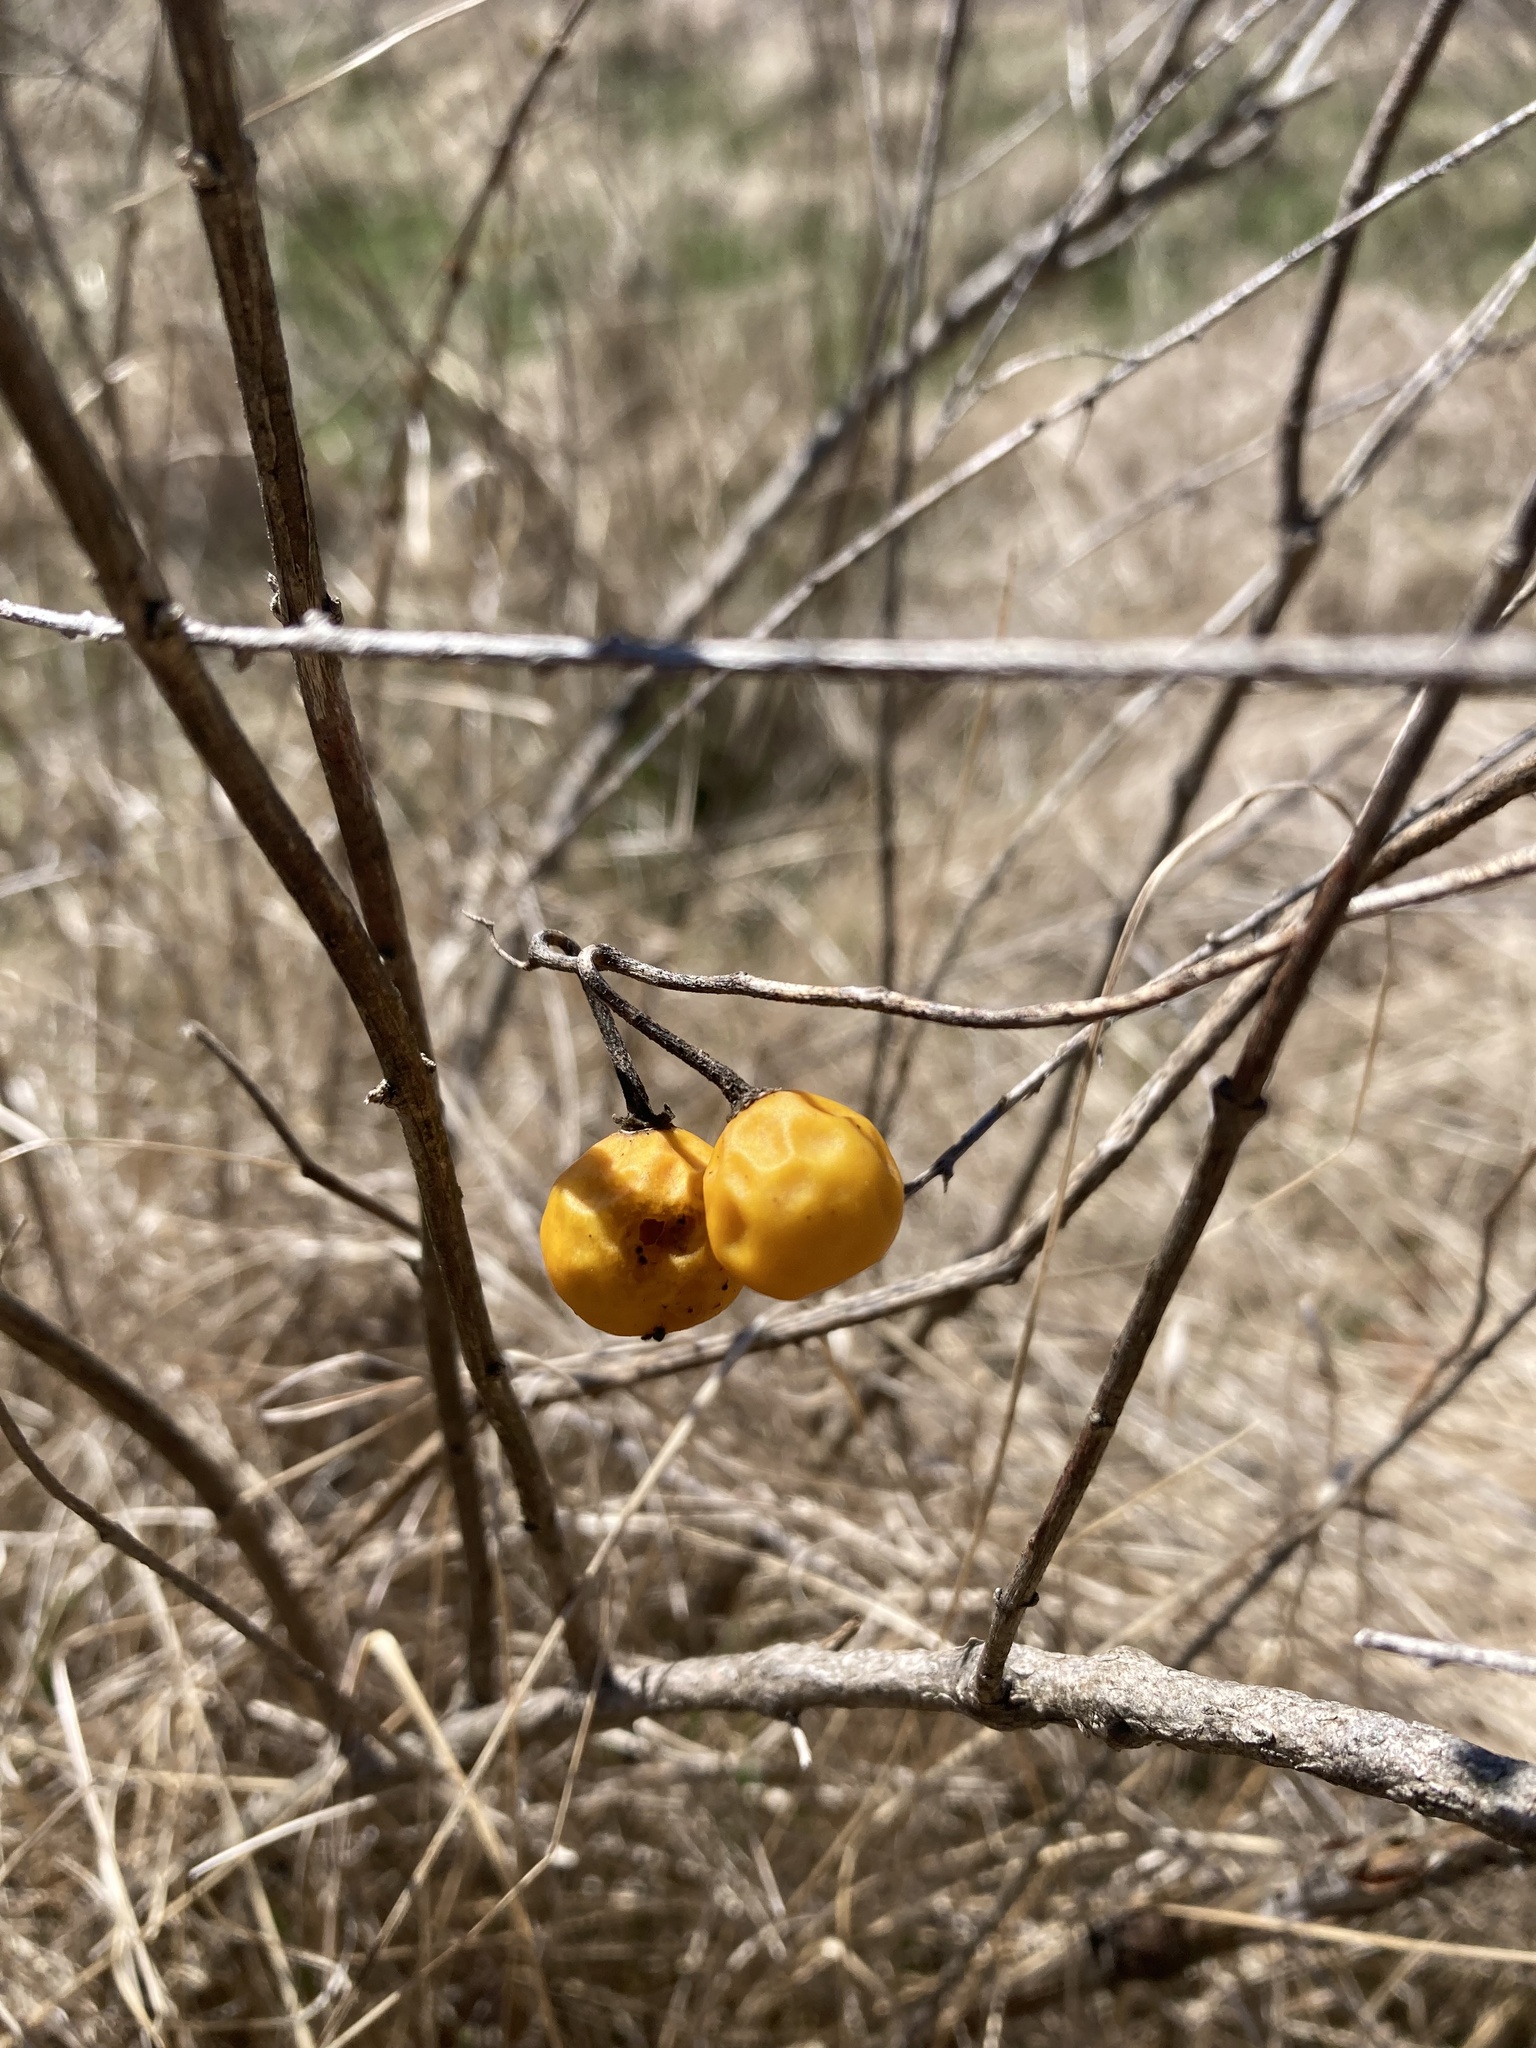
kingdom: Plantae
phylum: Tracheophyta
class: Magnoliopsida
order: Solanales
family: Solanaceae
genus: Solanum
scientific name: Solanum carolinense
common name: Horse-nettle
